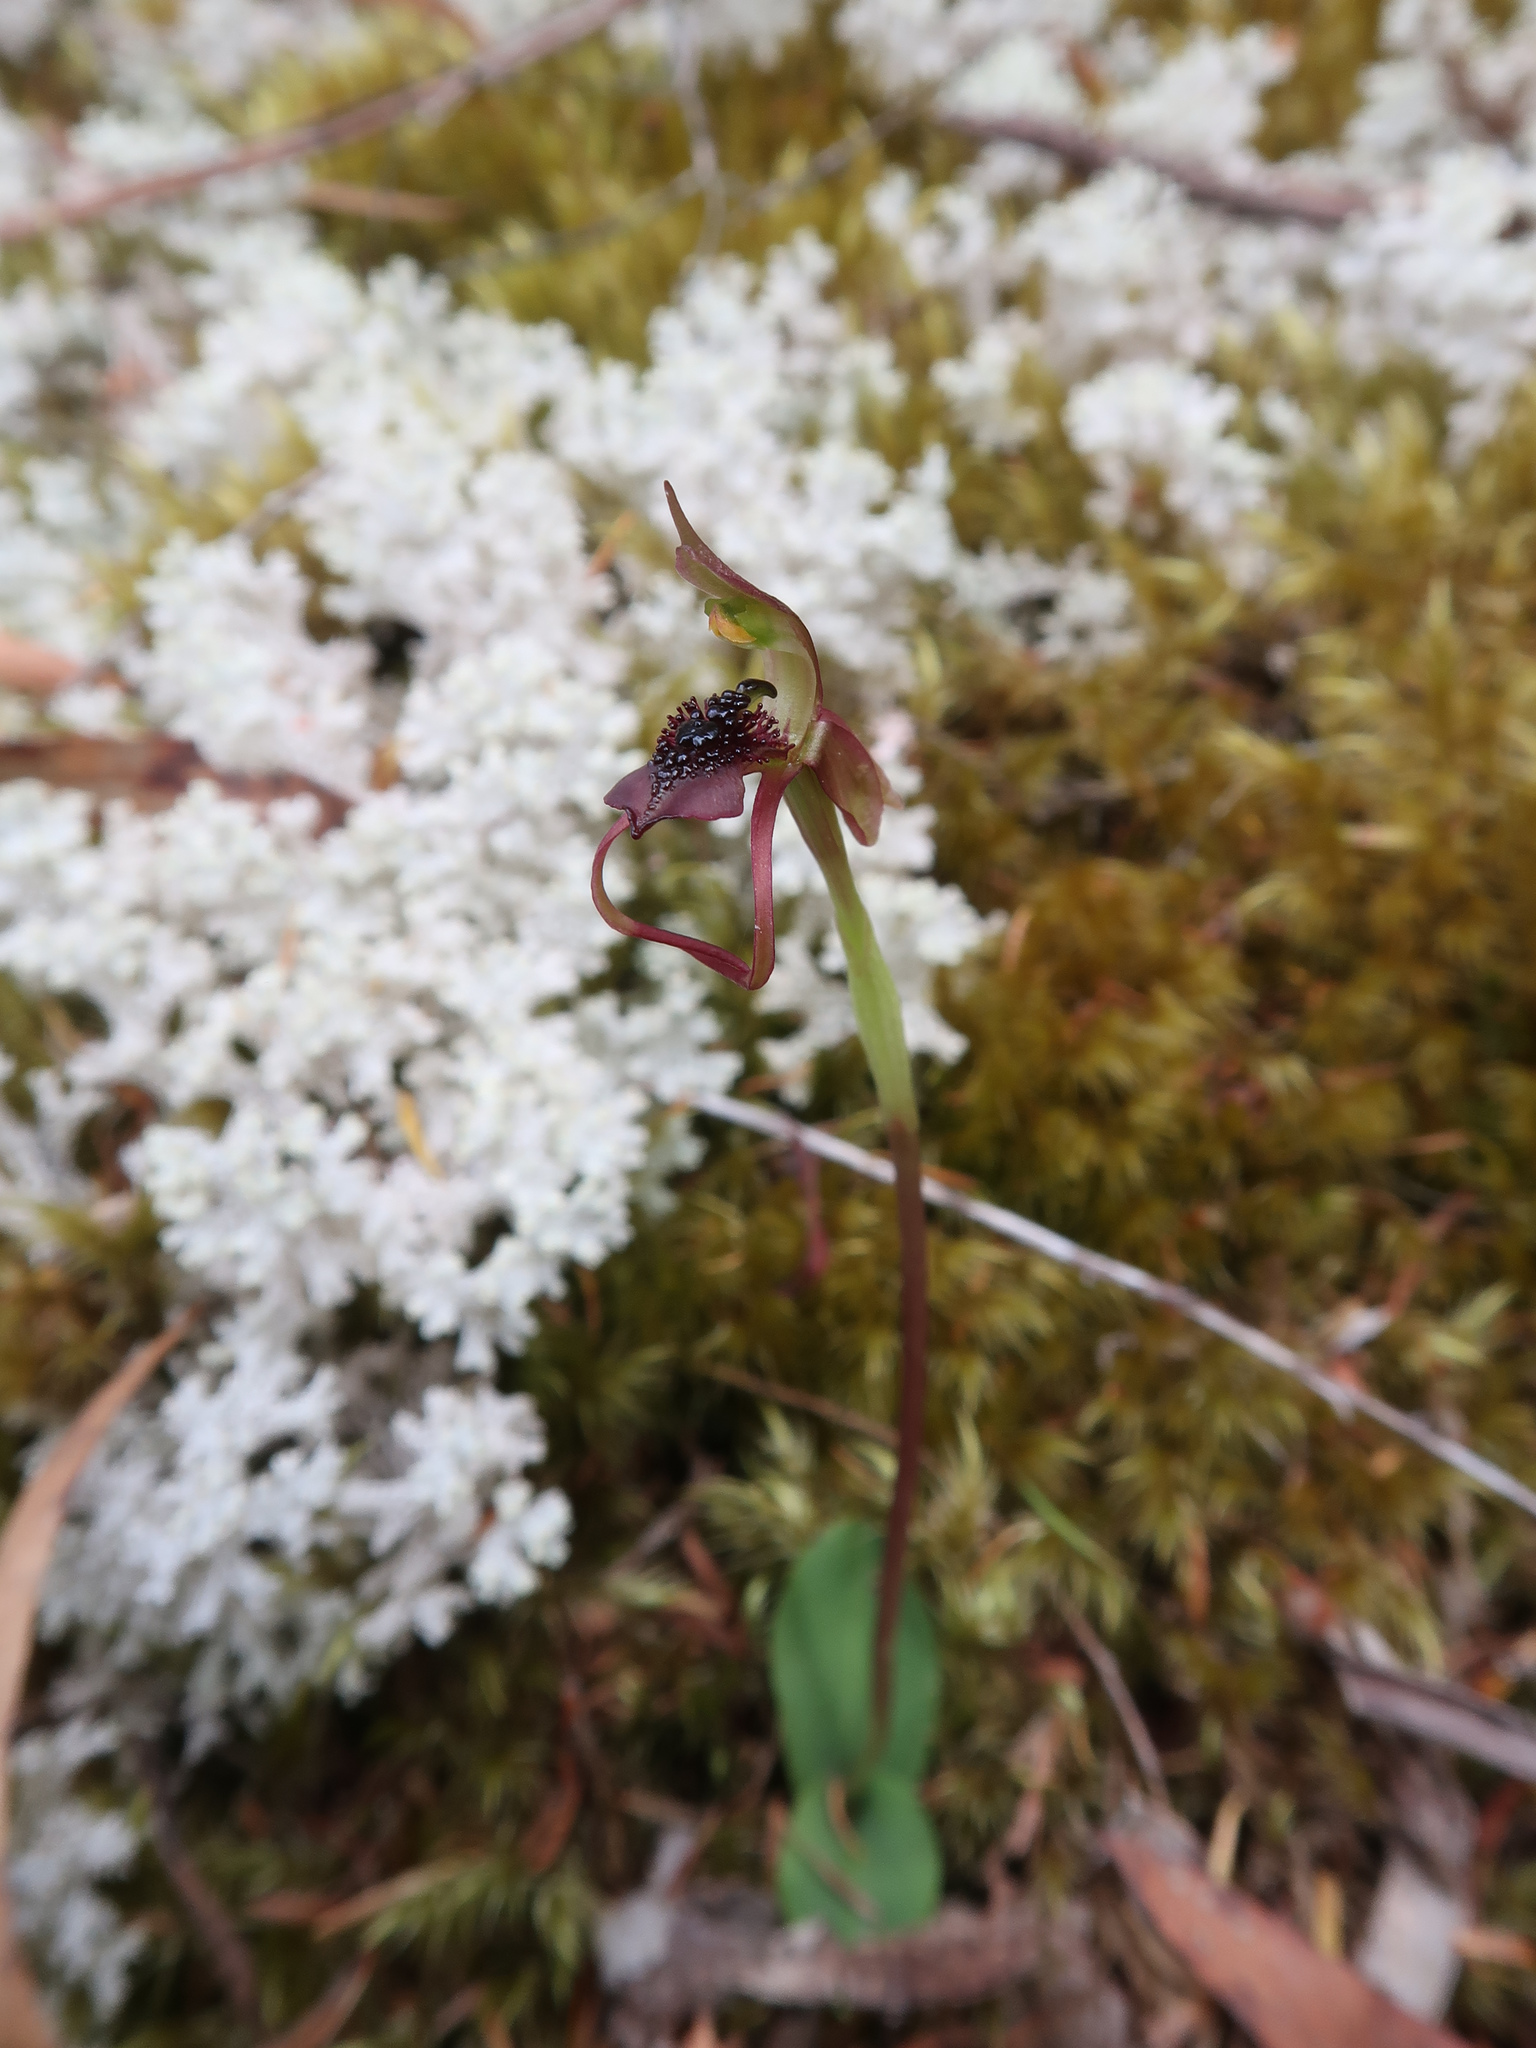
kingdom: Plantae
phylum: Tracheophyta
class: Liliopsida
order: Asparagales
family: Orchidaceae
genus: Chiloglottis
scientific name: Chiloglottis reflexa
